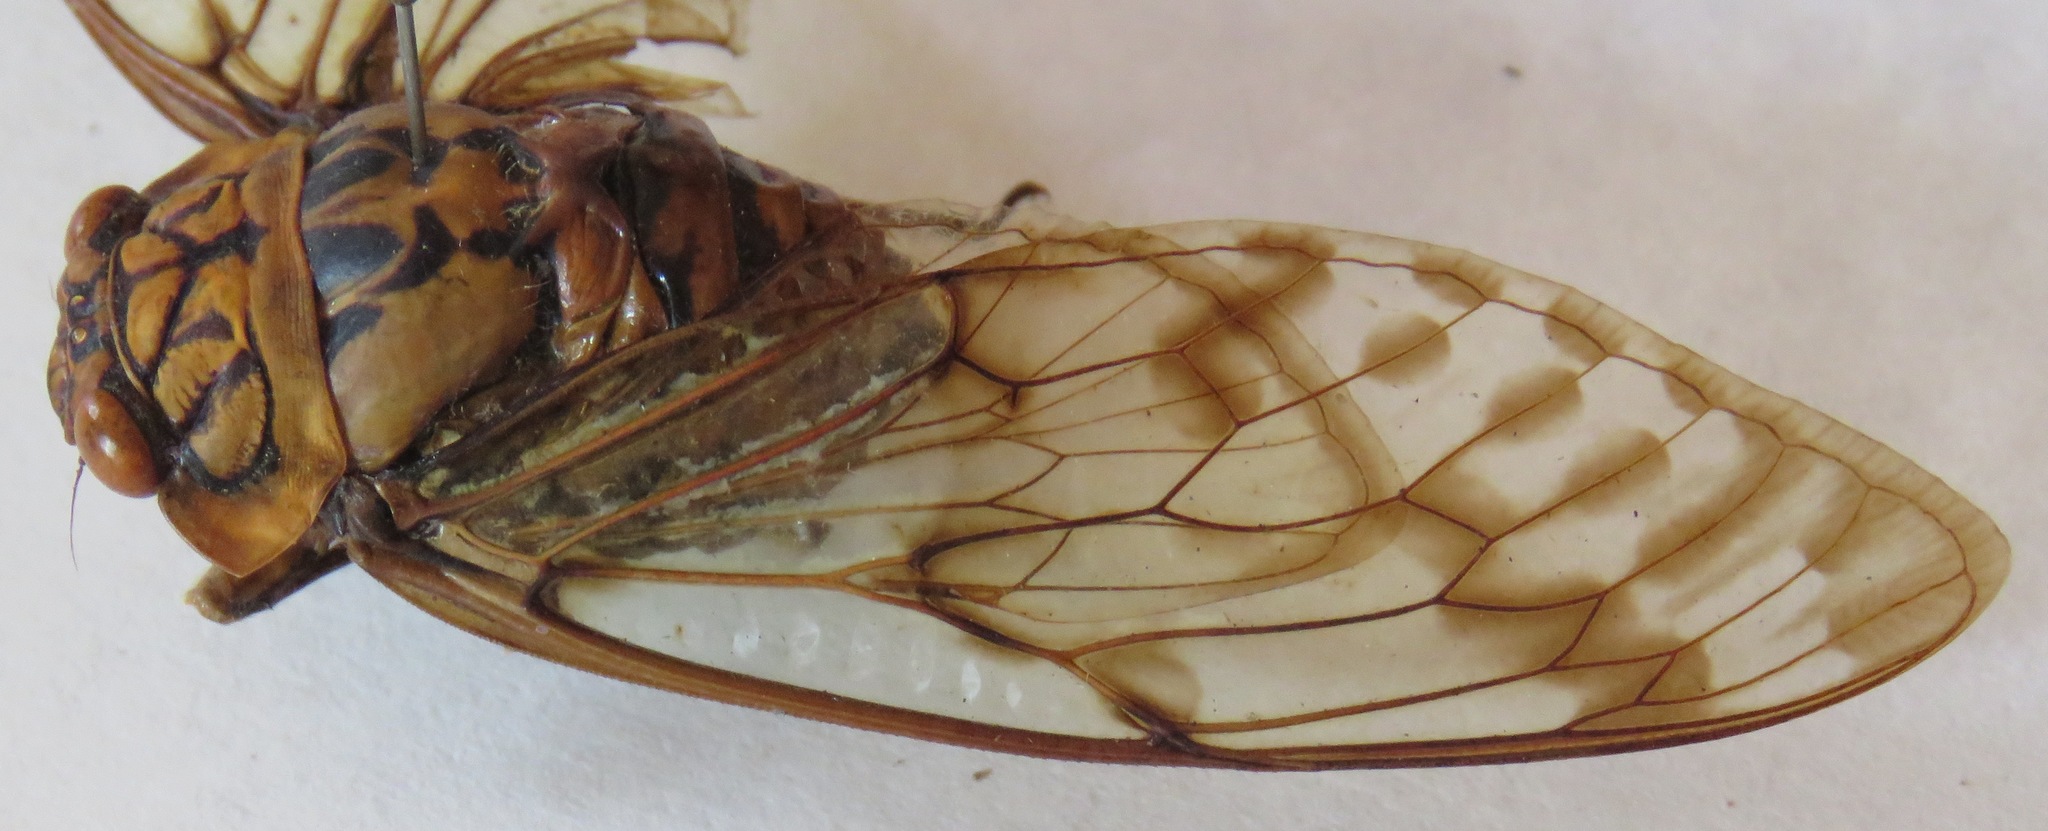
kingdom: Animalia
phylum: Arthropoda
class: Insecta
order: Hemiptera
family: Cicadidae
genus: Miranha
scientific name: Miranha imbellis
